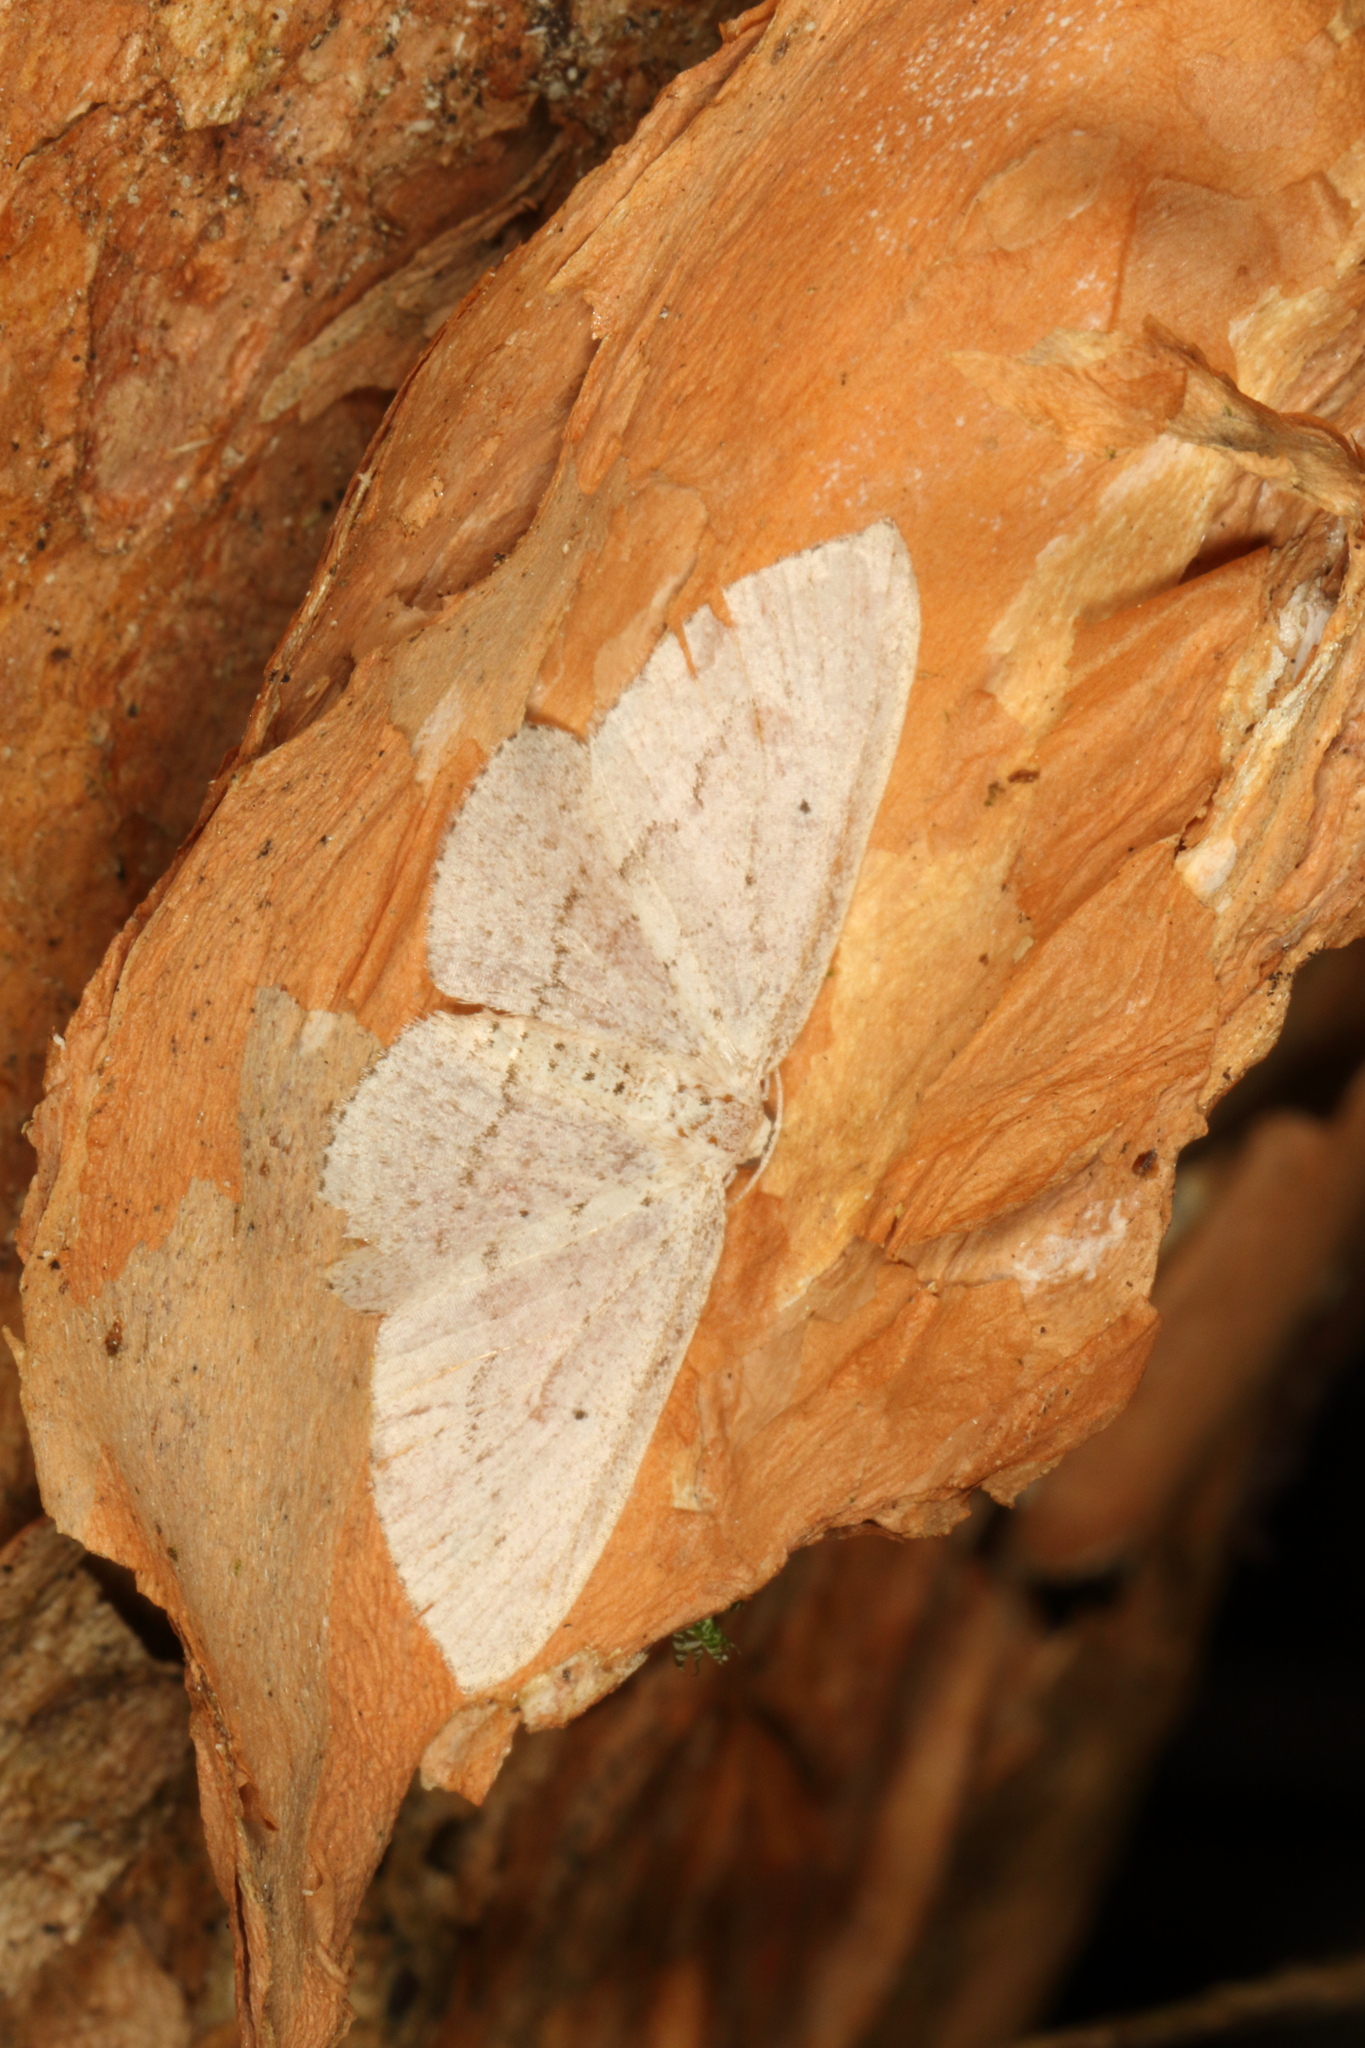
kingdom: Animalia
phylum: Arthropoda
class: Insecta
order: Lepidoptera
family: Geometridae
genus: Poecilasthena
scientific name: Poecilasthena schistaria
